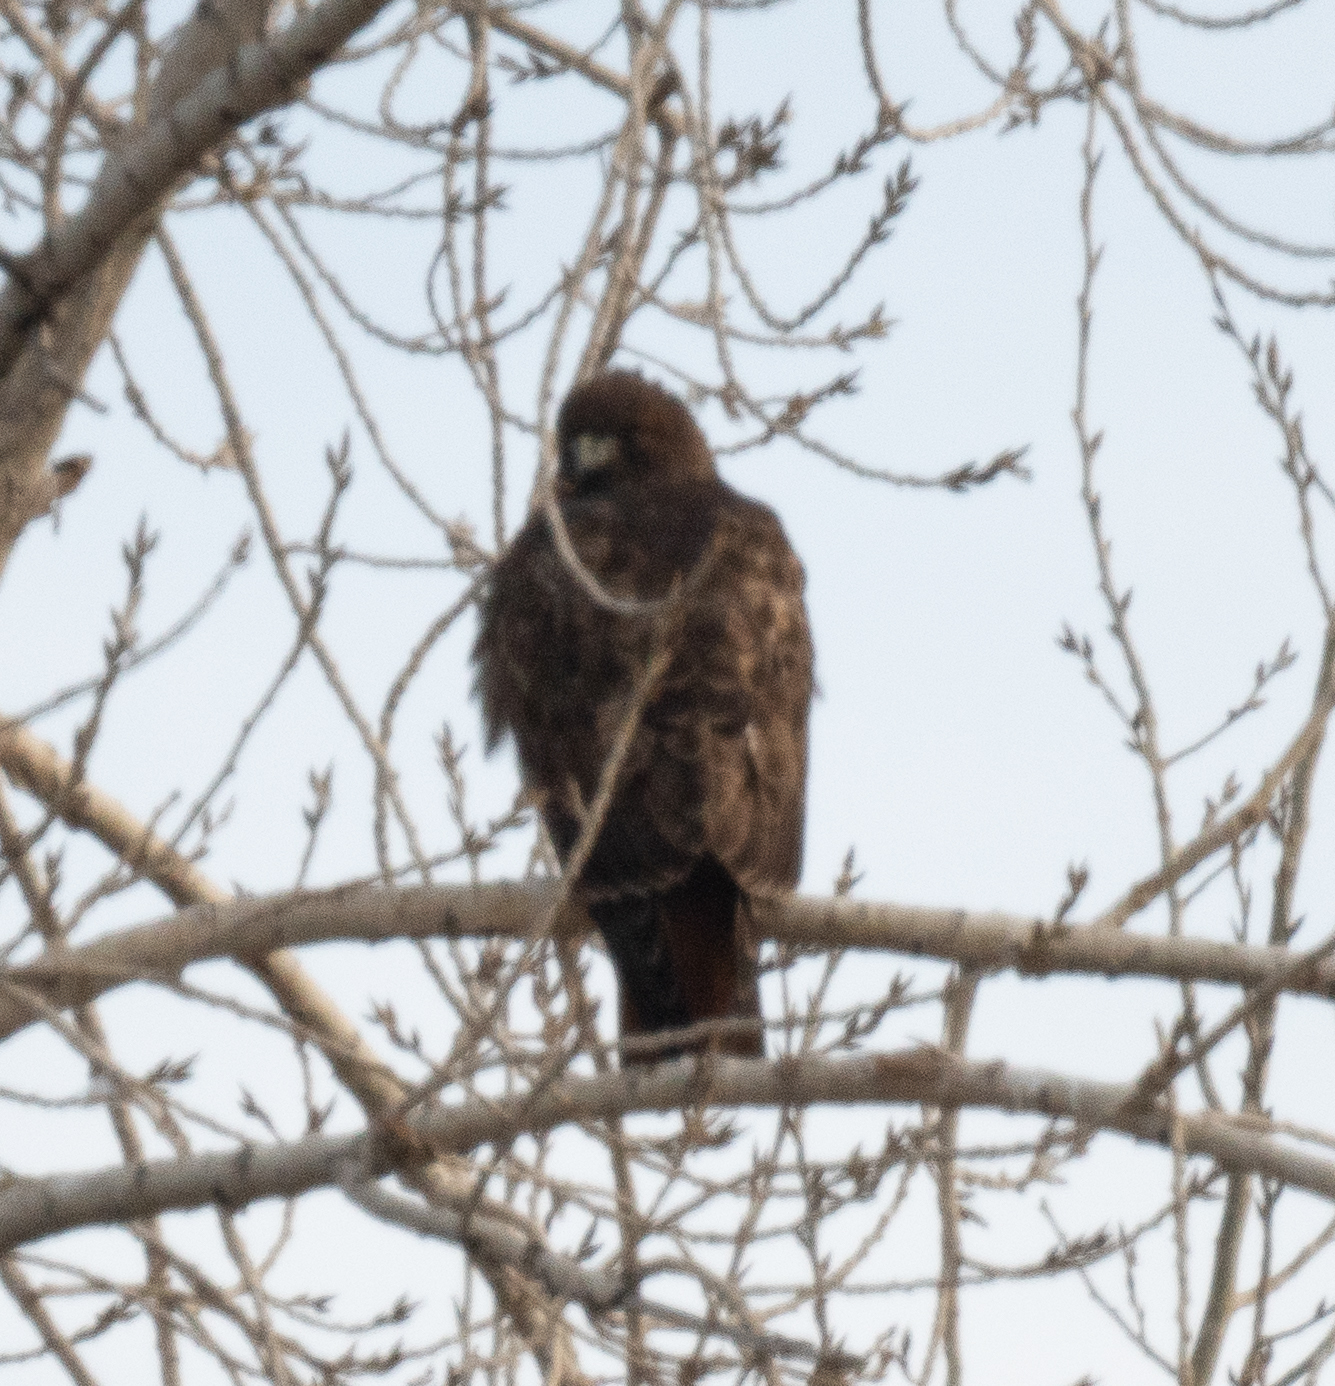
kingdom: Animalia
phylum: Chordata
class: Aves
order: Accipitriformes
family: Accipitridae
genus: Buteo
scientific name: Buteo jamaicensis
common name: Red-tailed hawk
